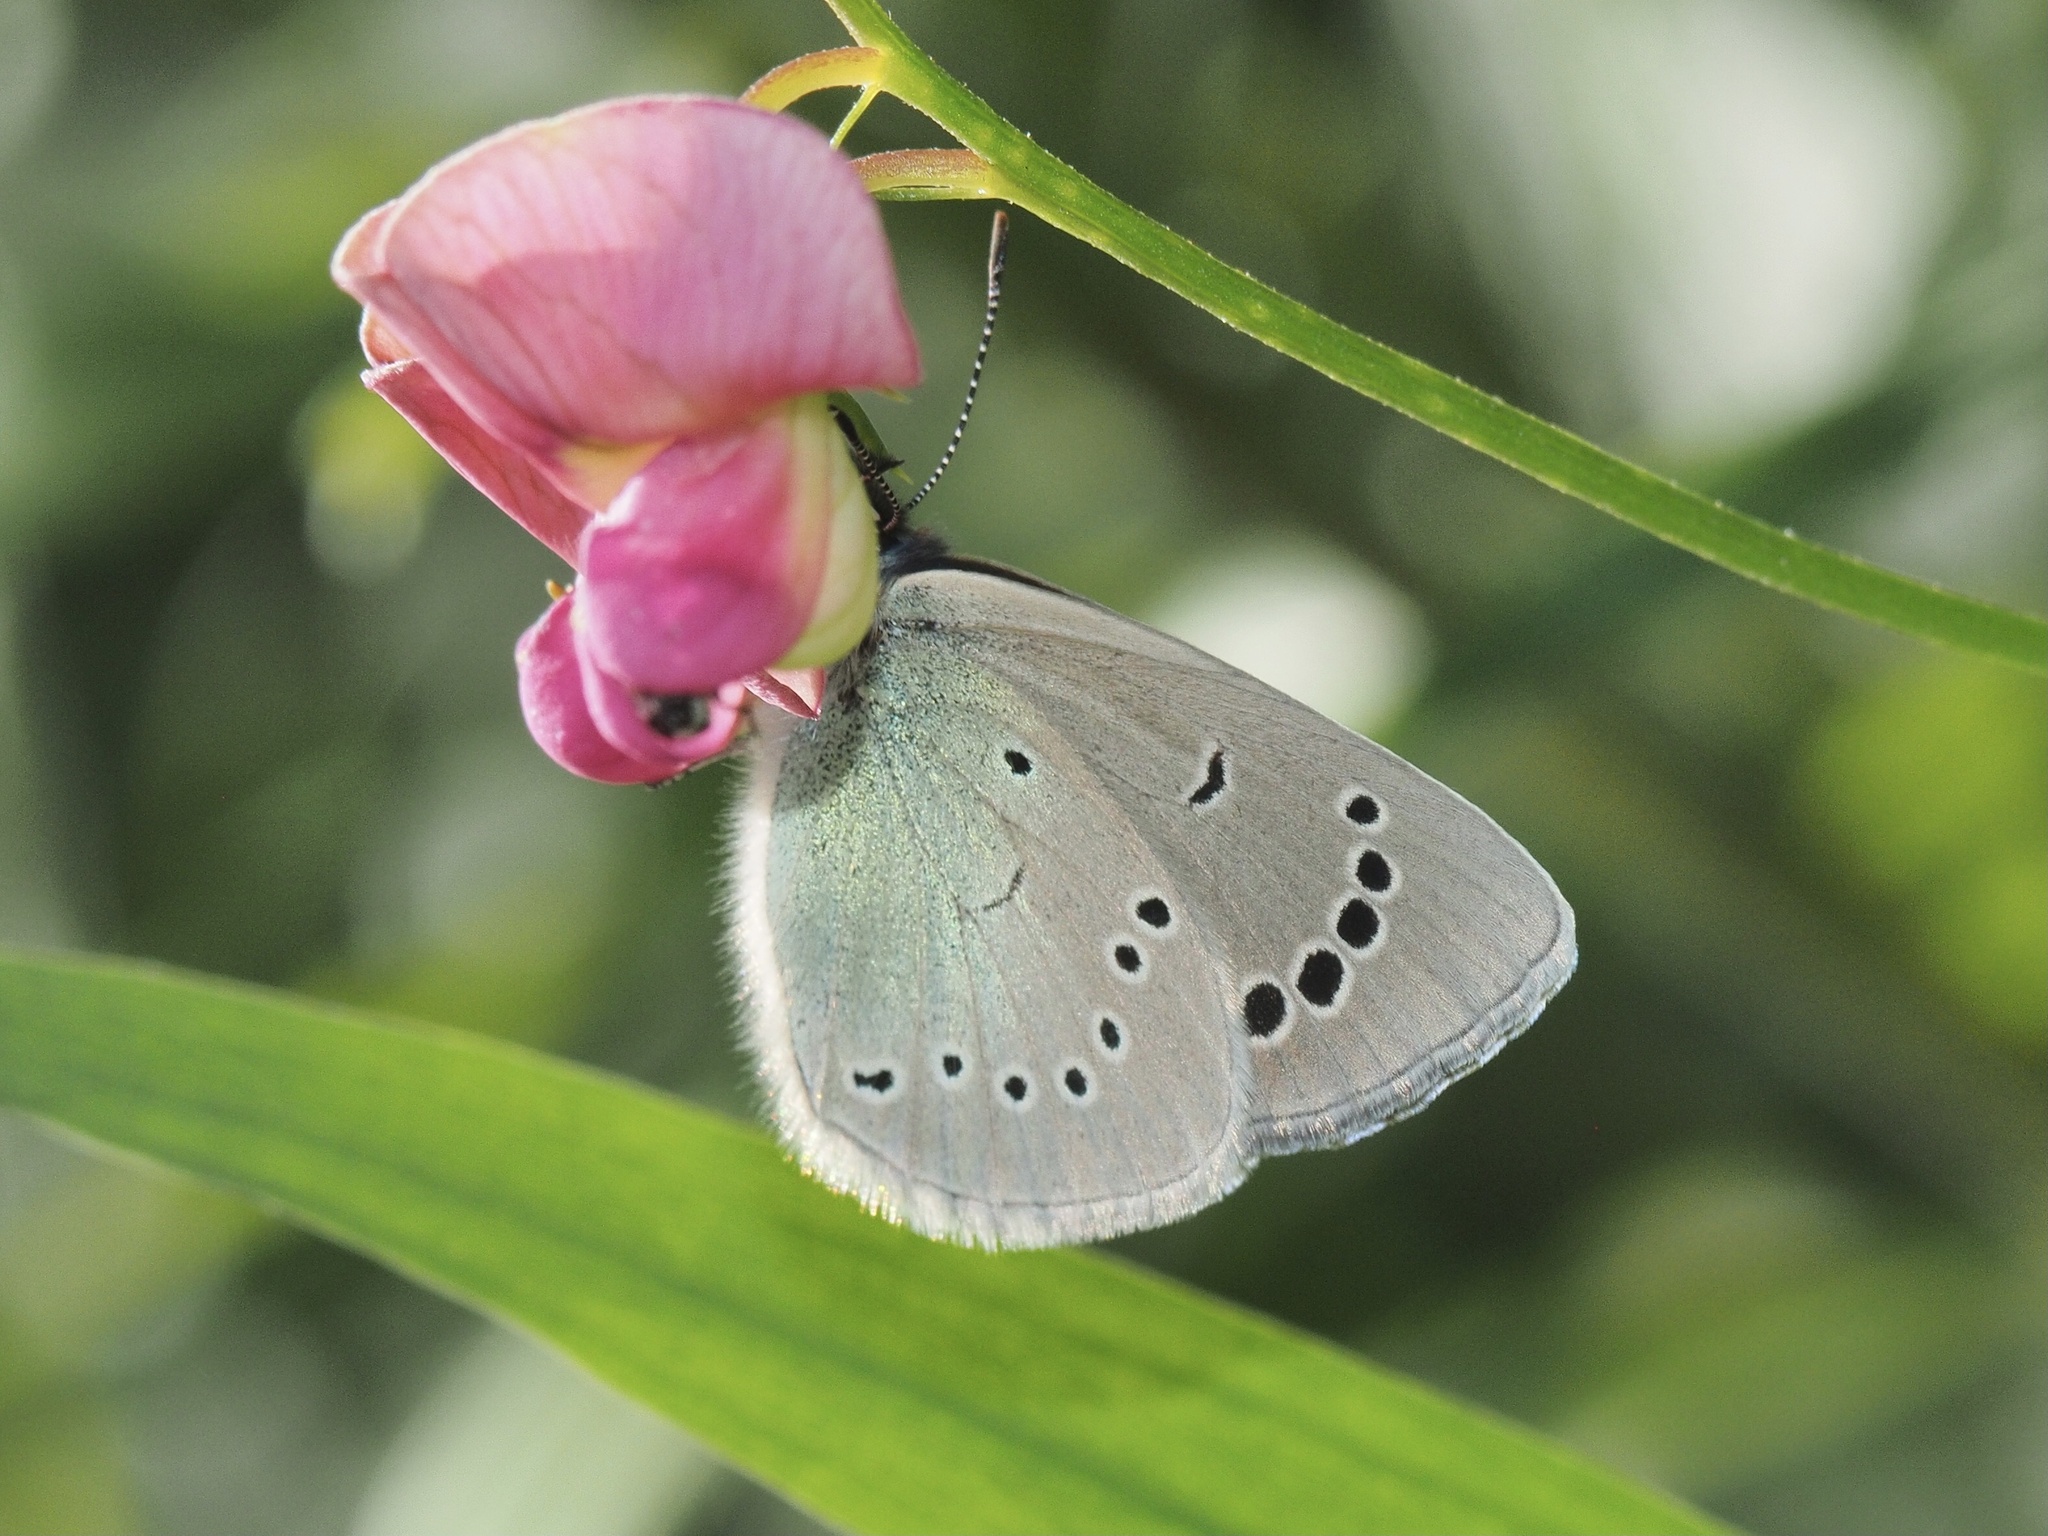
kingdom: Animalia
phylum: Arthropoda
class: Insecta
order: Lepidoptera
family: Lycaenidae
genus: Glaucopsyche
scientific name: Glaucopsyche alexis
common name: Green-underside blue
